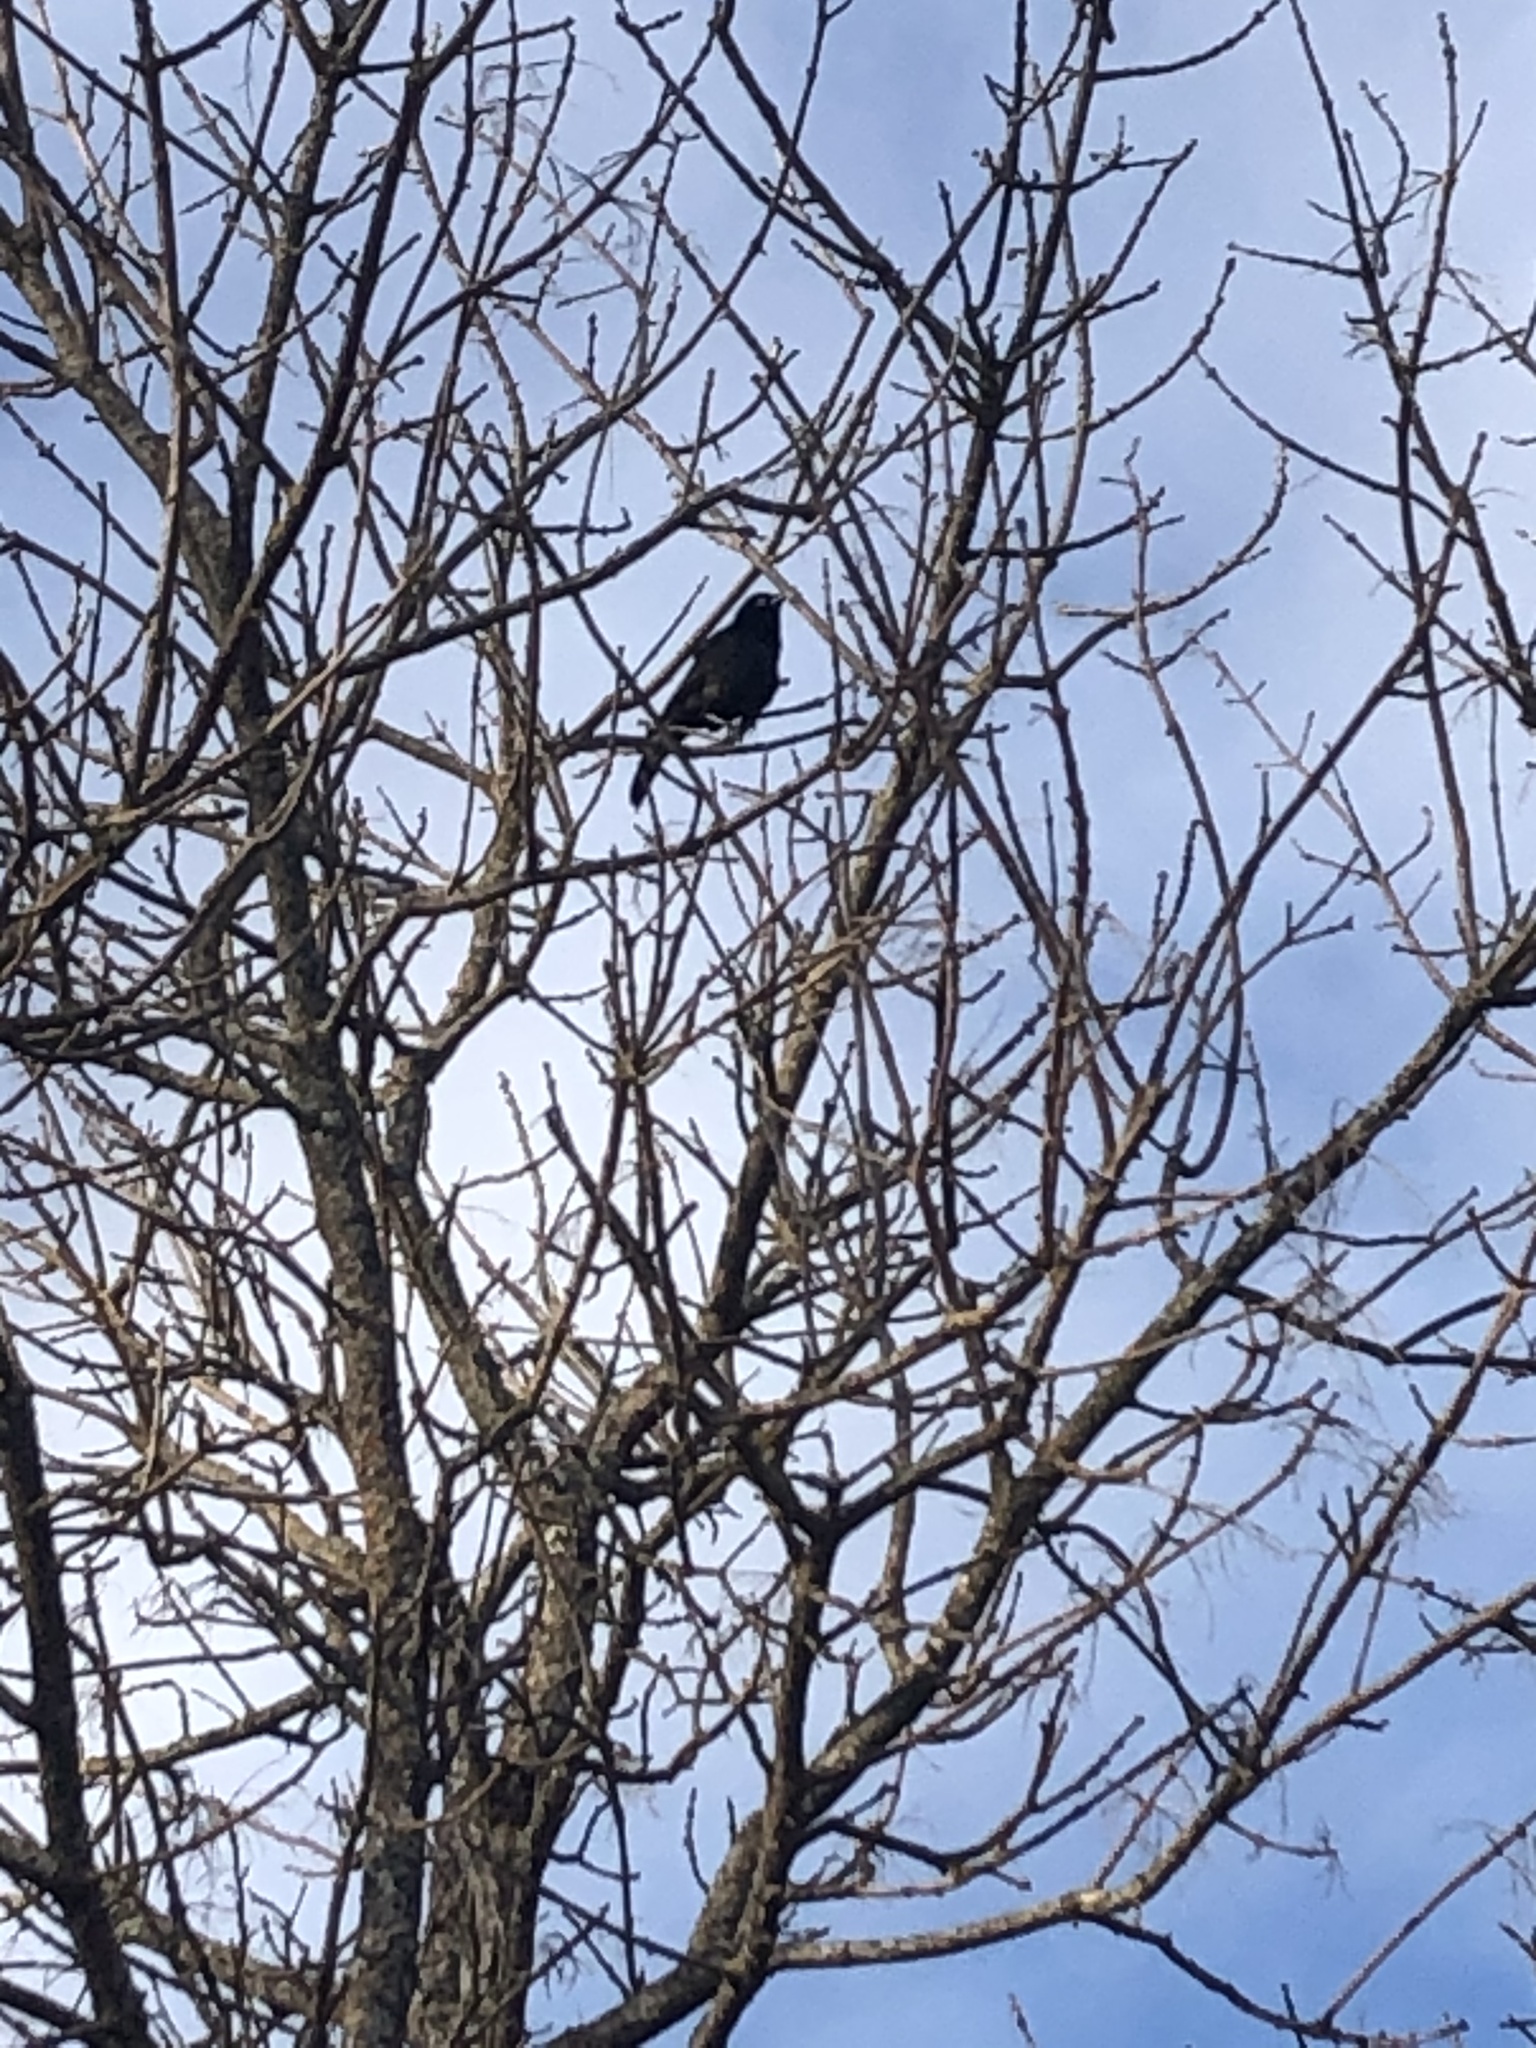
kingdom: Animalia
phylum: Chordata
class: Aves
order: Passeriformes
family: Icteridae
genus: Quiscalus
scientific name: Quiscalus quiscula
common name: Common grackle
